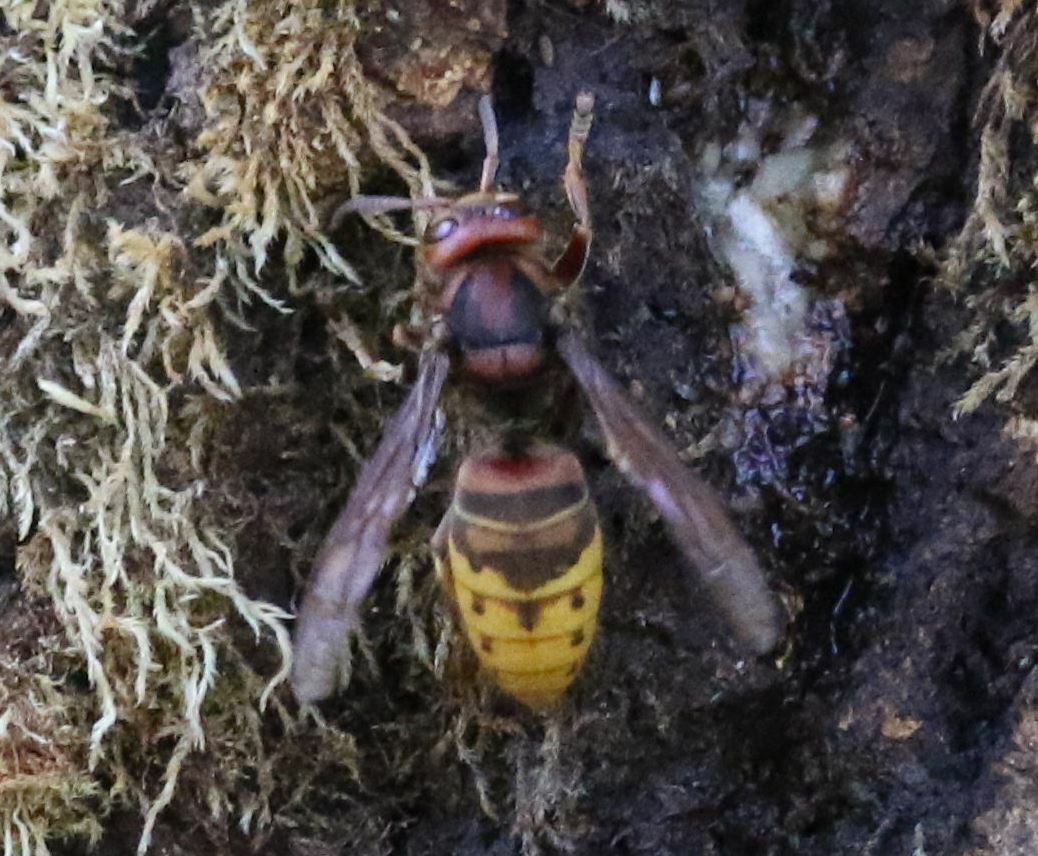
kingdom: Animalia
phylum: Arthropoda
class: Insecta
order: Hymenoptera
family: Vespidae
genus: Vespa
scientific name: Vespa crabro
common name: Hornet
